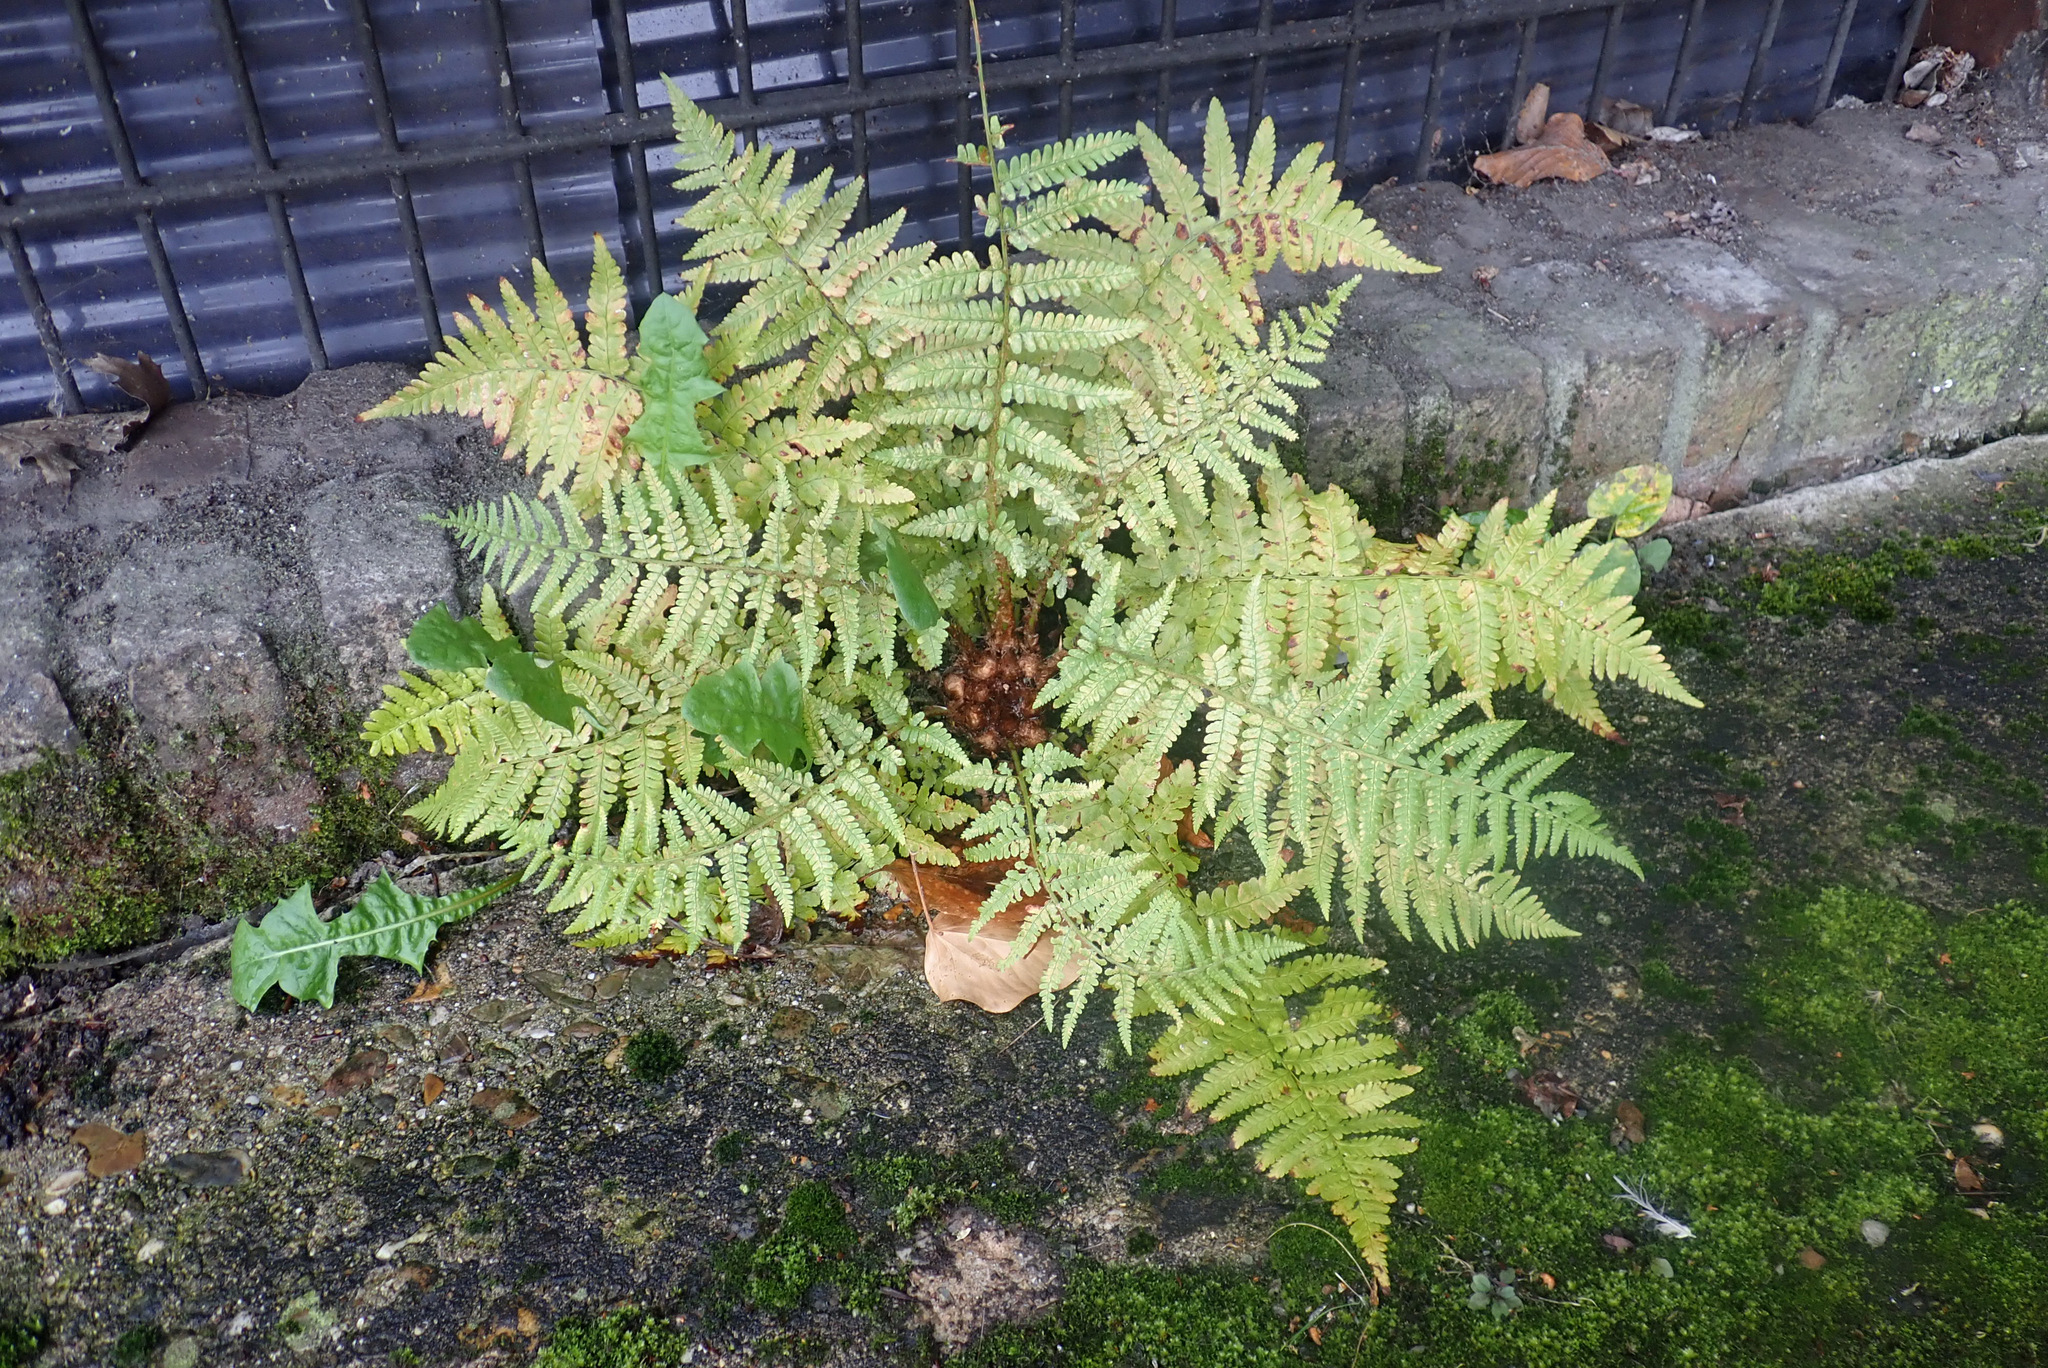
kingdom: Plantae
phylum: Tracheophyta
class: Polypodiopsida
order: Polypodiales
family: Dryopteridaceae
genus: Dryopteris
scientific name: Dryopteris filix-mas
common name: Male fern
